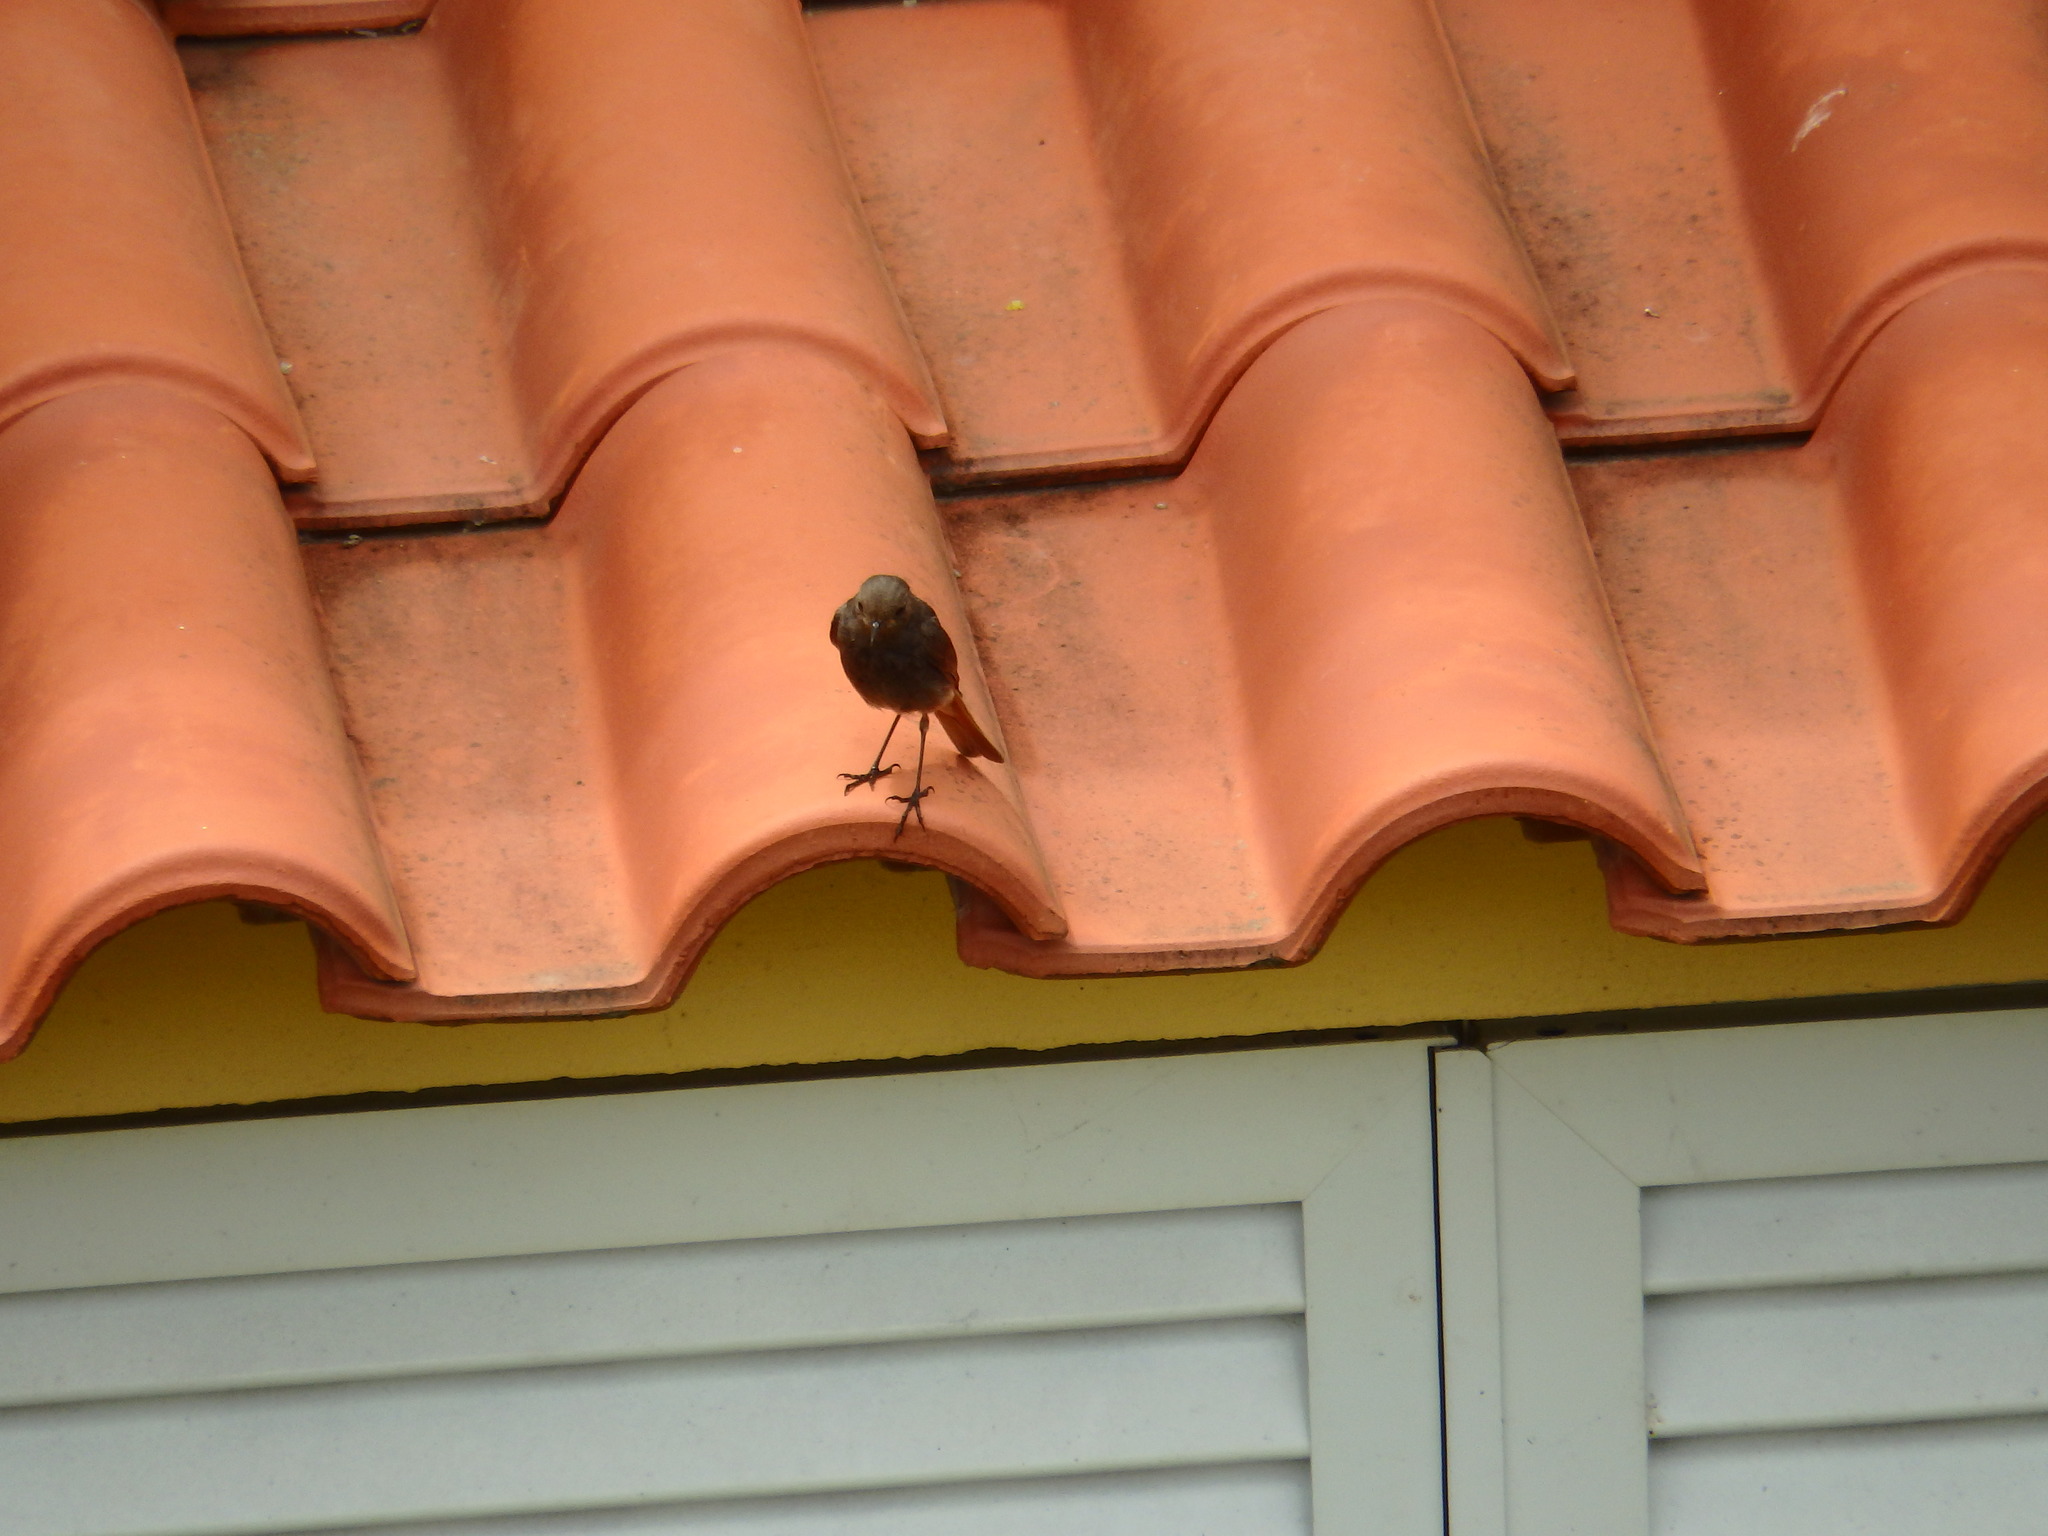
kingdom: Animalia
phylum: Chordata
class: Aves
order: Passeriformes
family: Muscicapidae
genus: Phoenicurus
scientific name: Phoenicurus ochruros
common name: Black redstart
